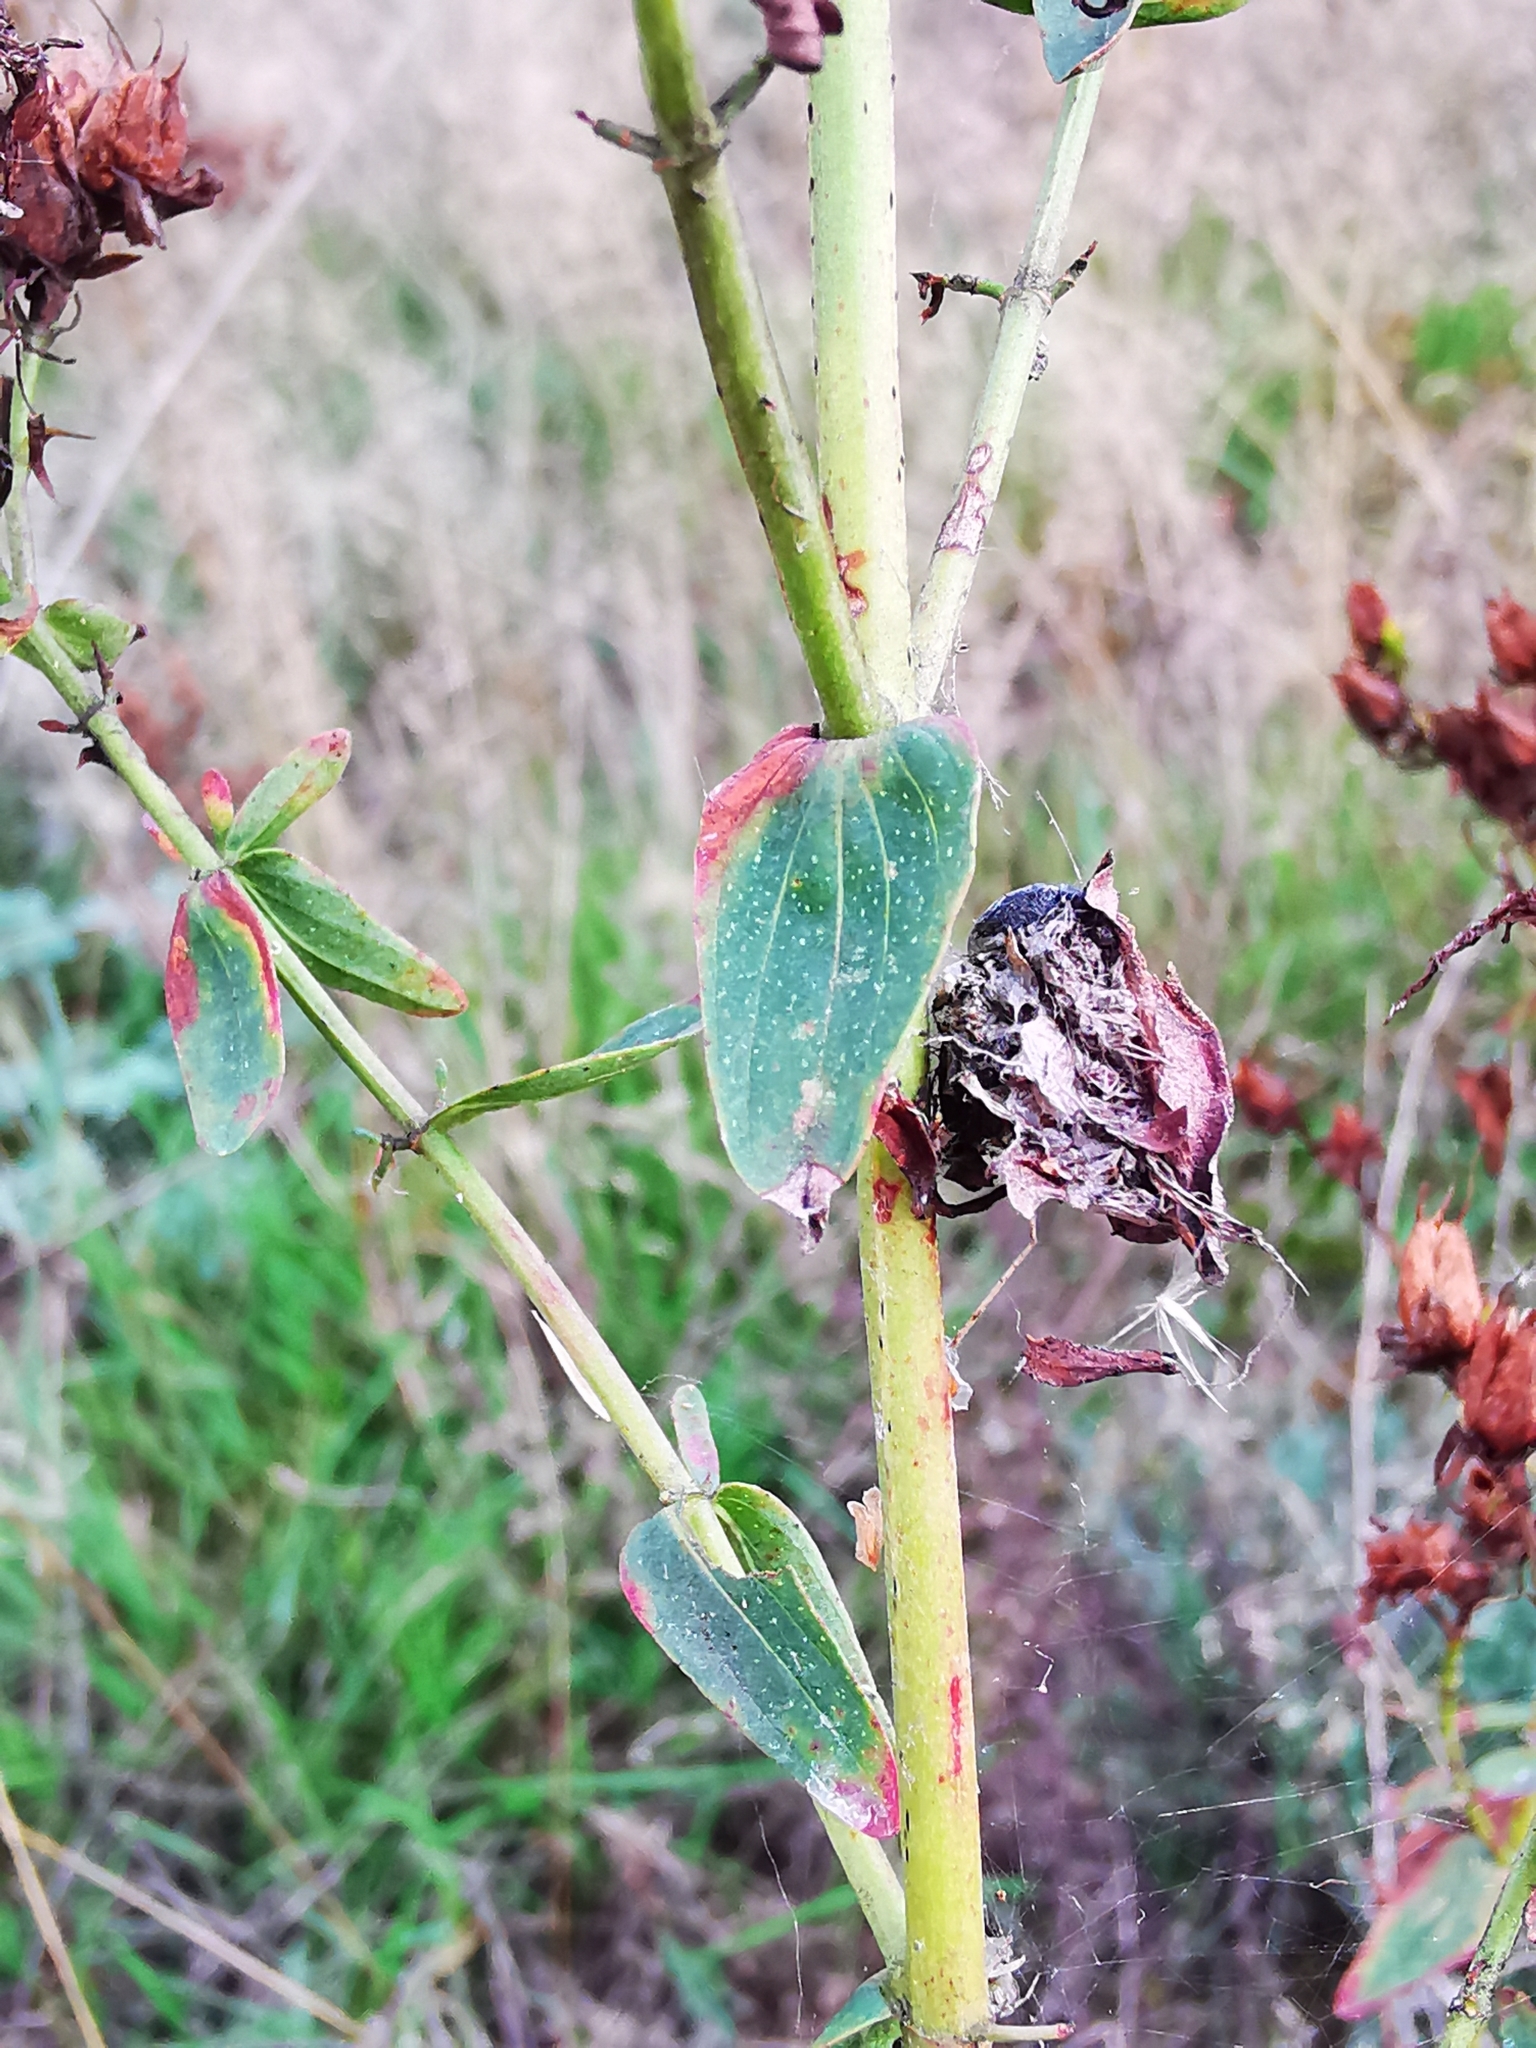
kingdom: Plantae
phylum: Tracheophyta
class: Magnoliopsida
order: Malpighiales
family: Hypericaceae
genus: Hypericum
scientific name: Hypericum perforatum
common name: Common st. johnswort
